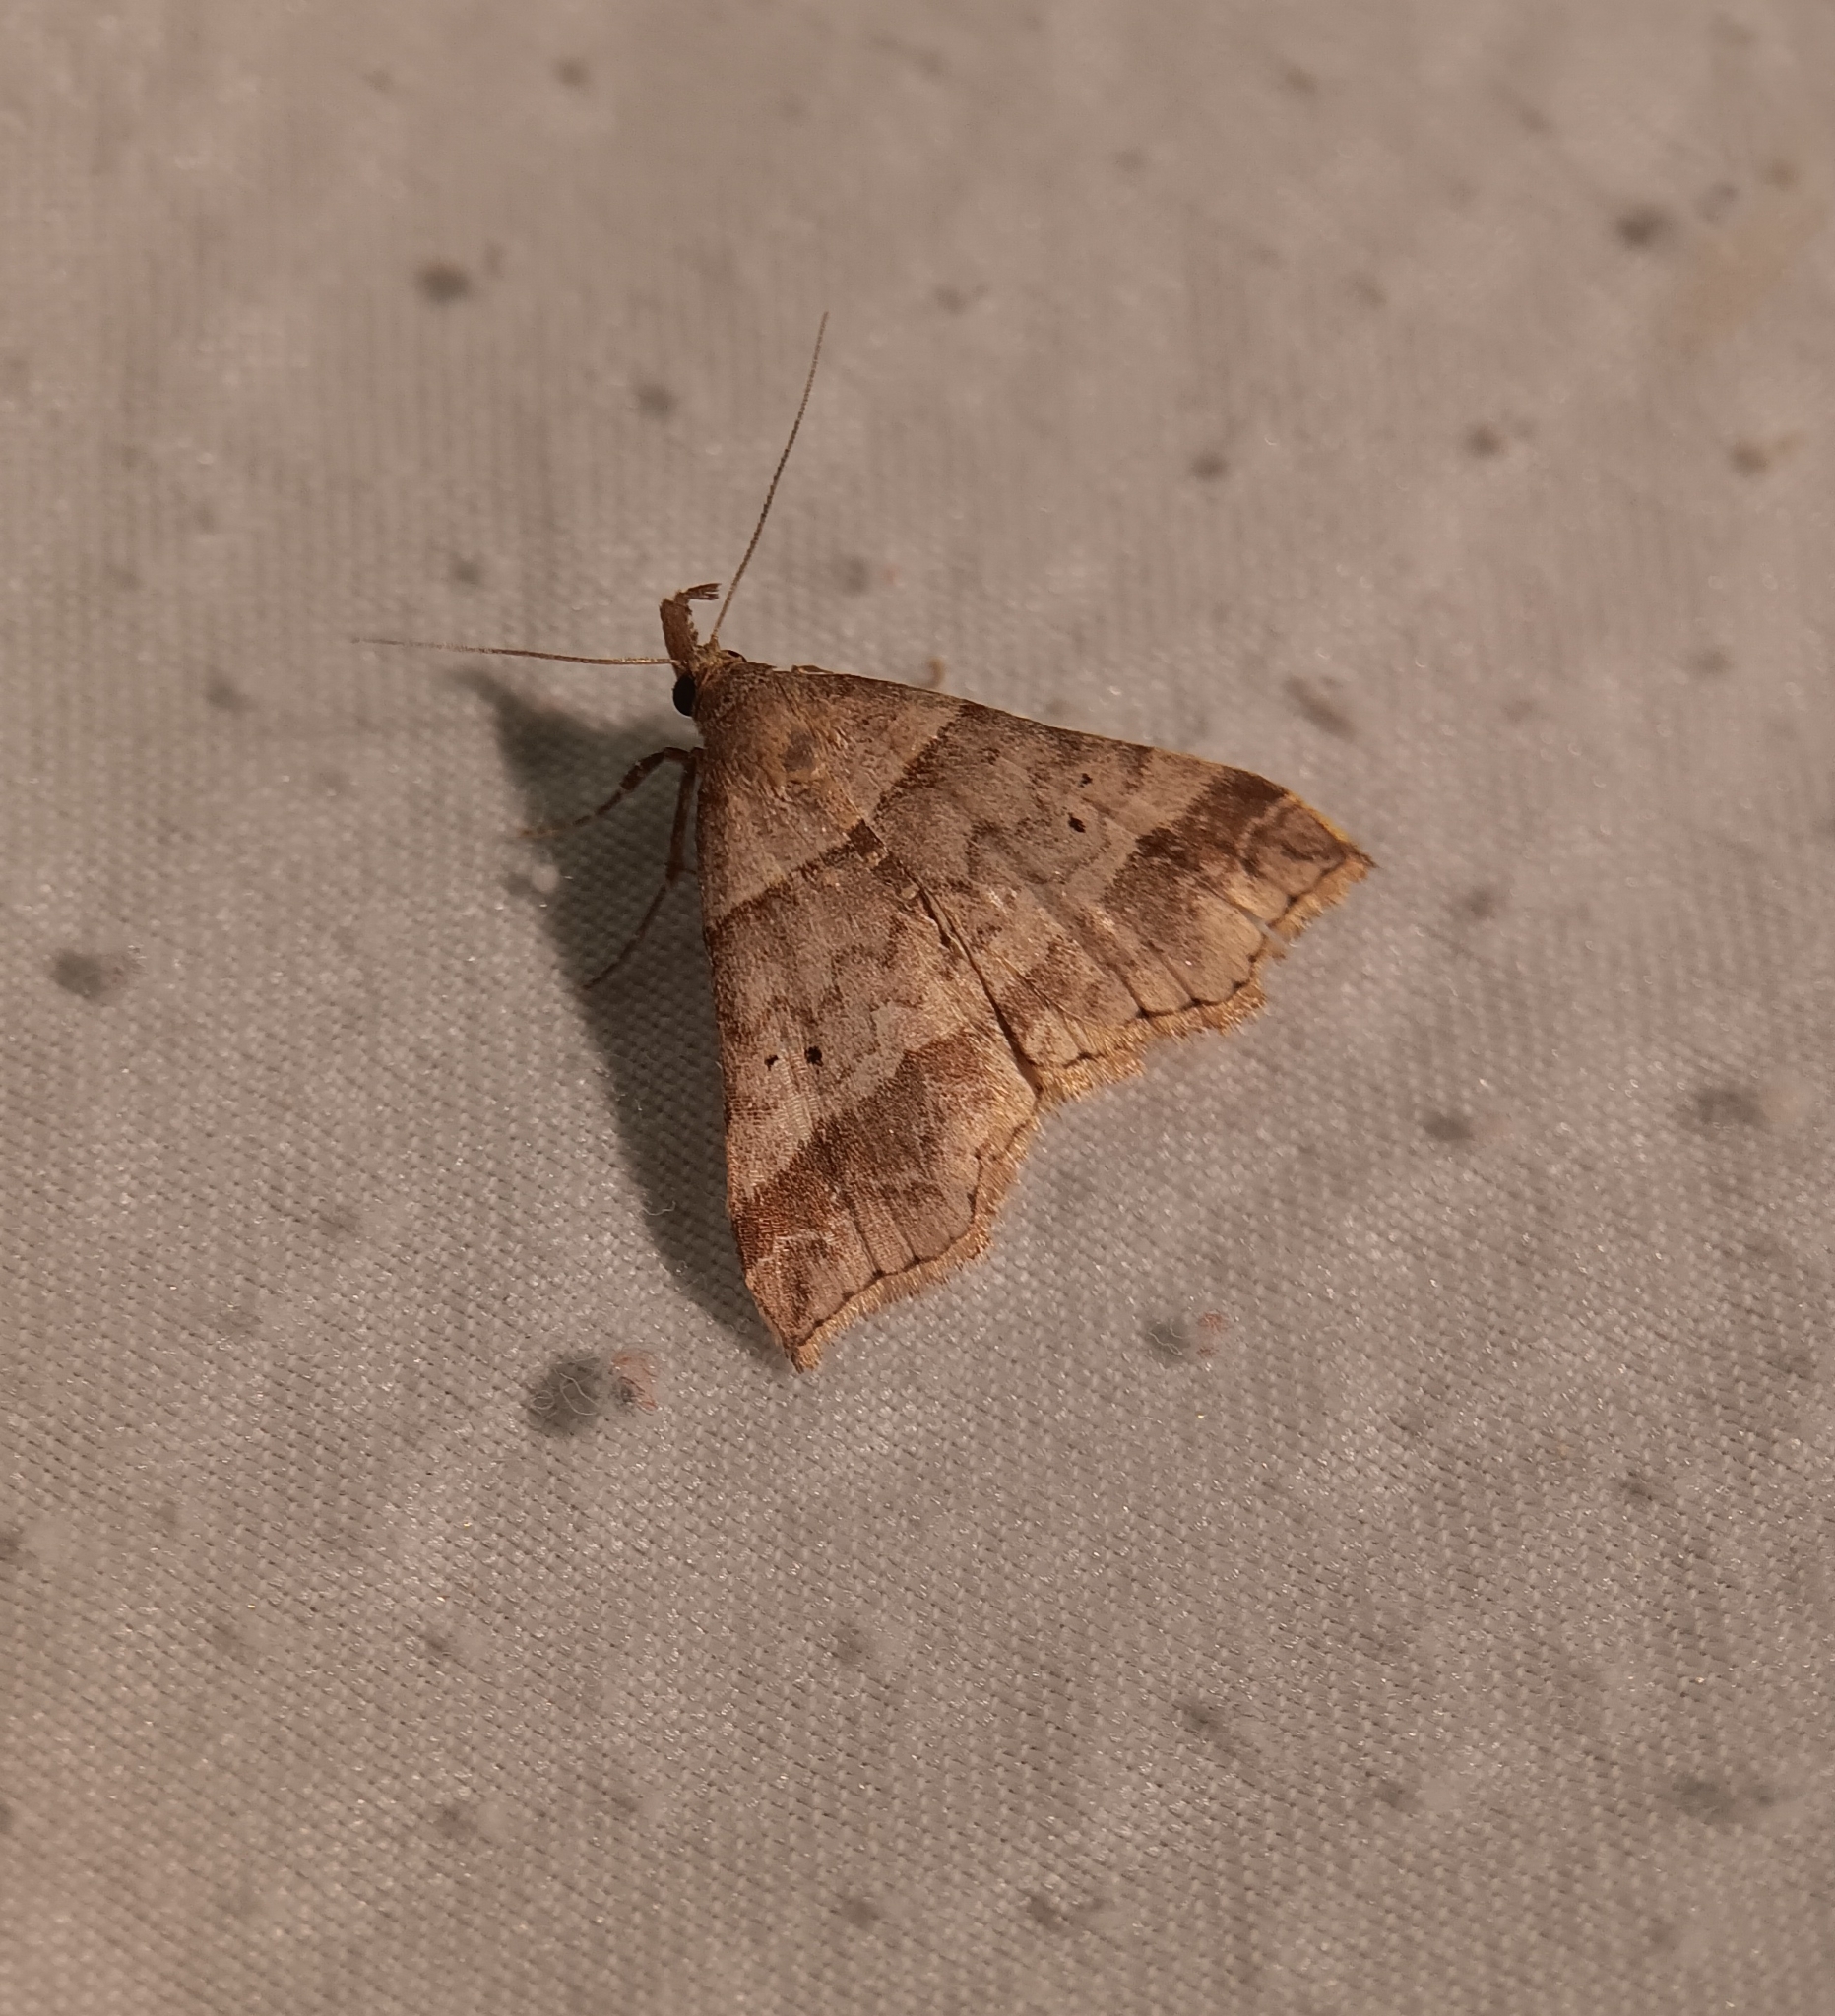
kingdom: Animalia
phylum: Arthropoda
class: Insecta
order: Lepidoptera
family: Erebidae
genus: Phaeolita
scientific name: Phaeolita pyramusalis
